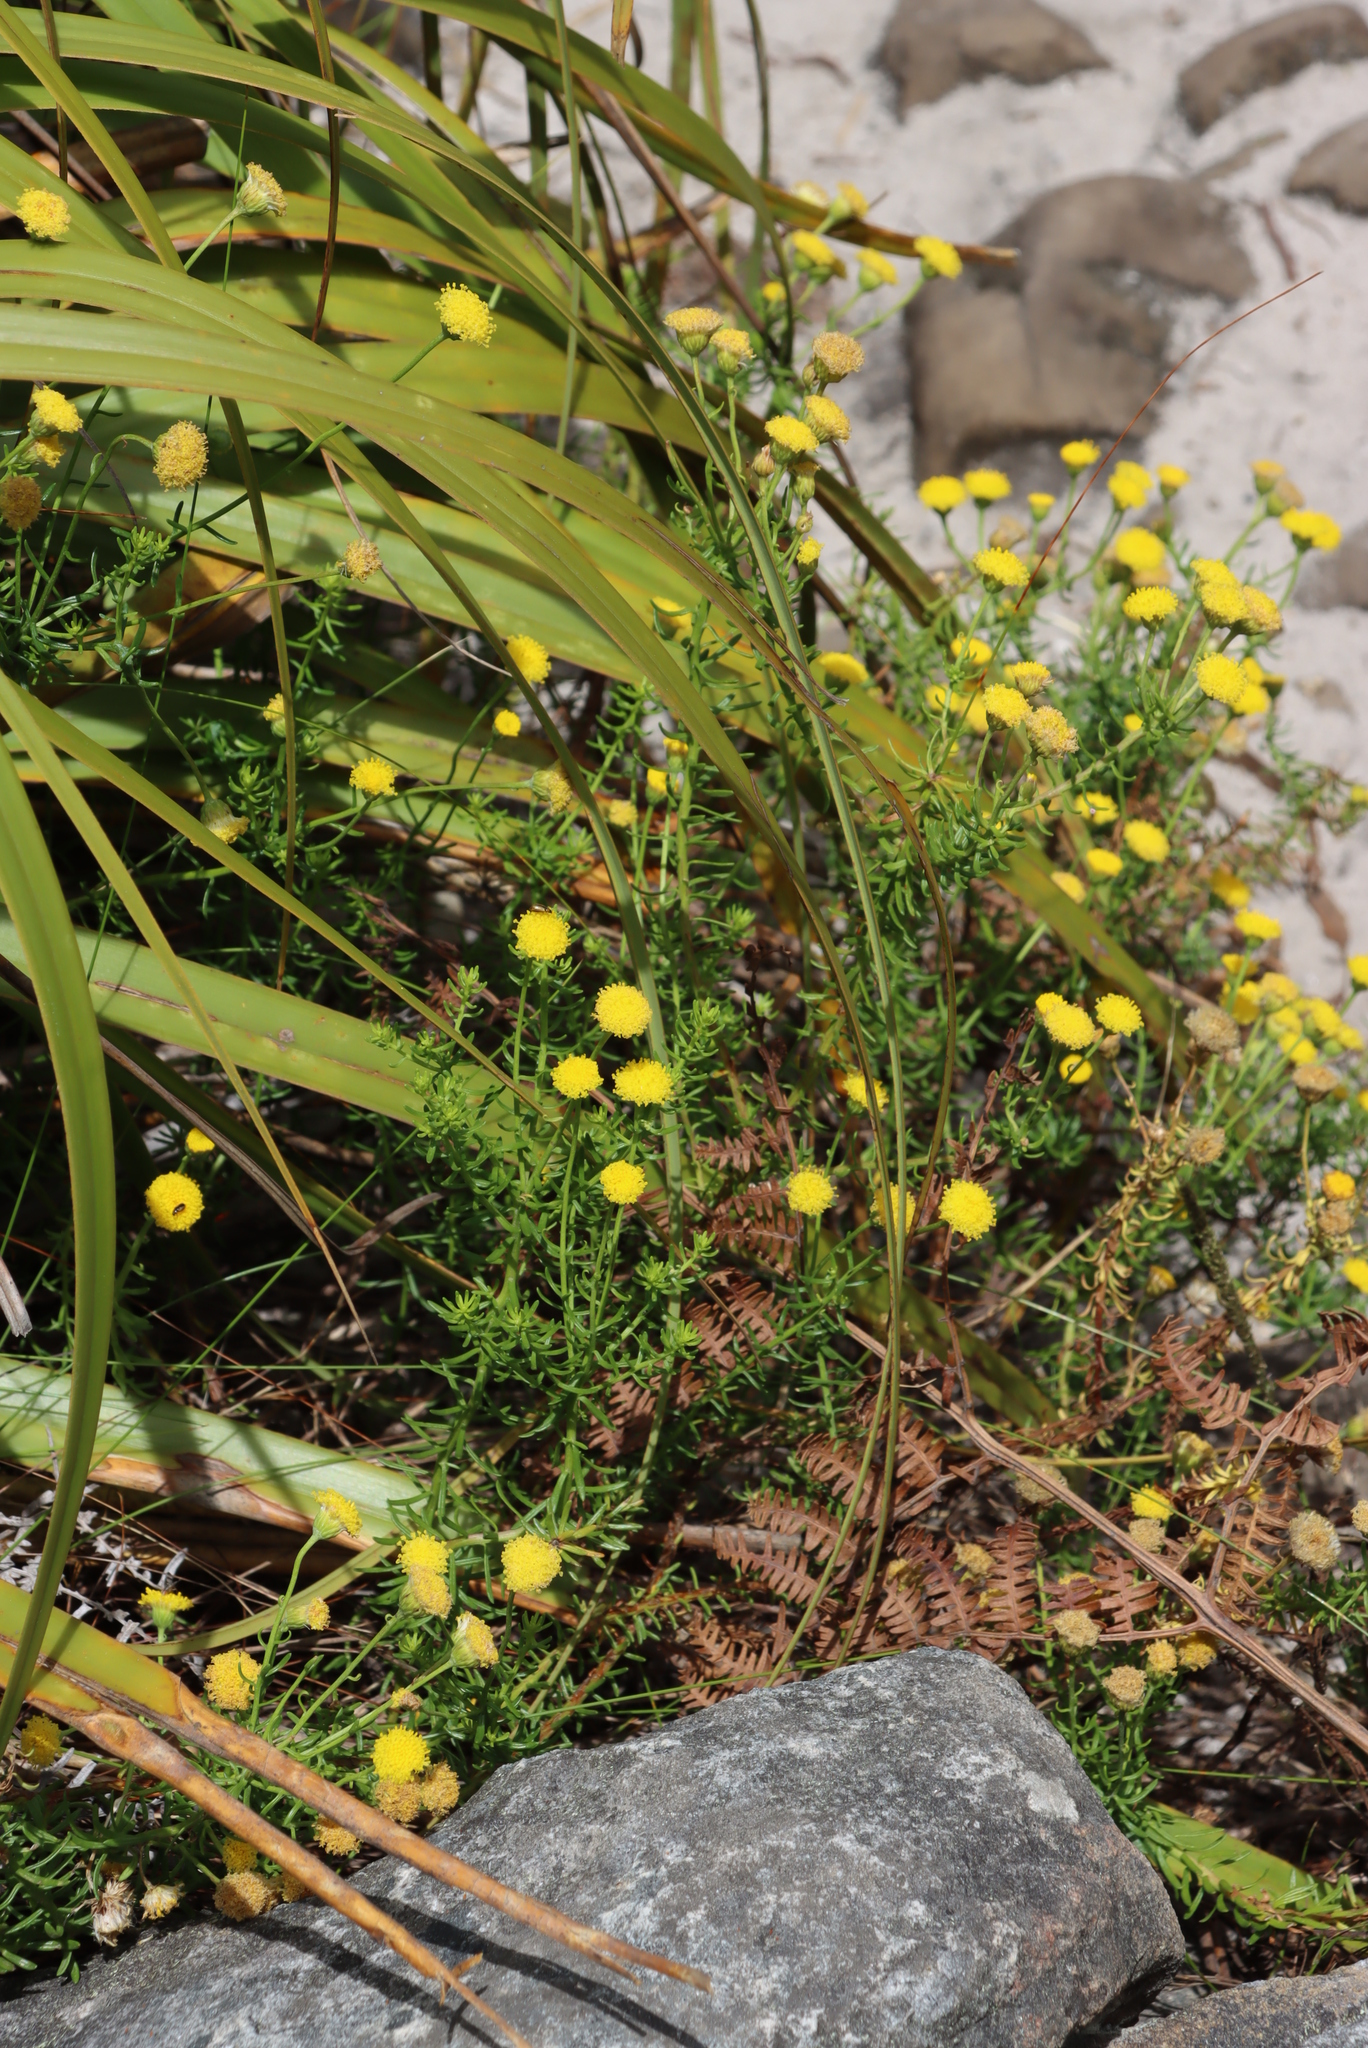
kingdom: Plantae
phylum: Tracheophyta
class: Magnoliopsida
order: Asterales
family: Asteraceae
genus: Chrysocoma
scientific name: Chrysocoma cernua
